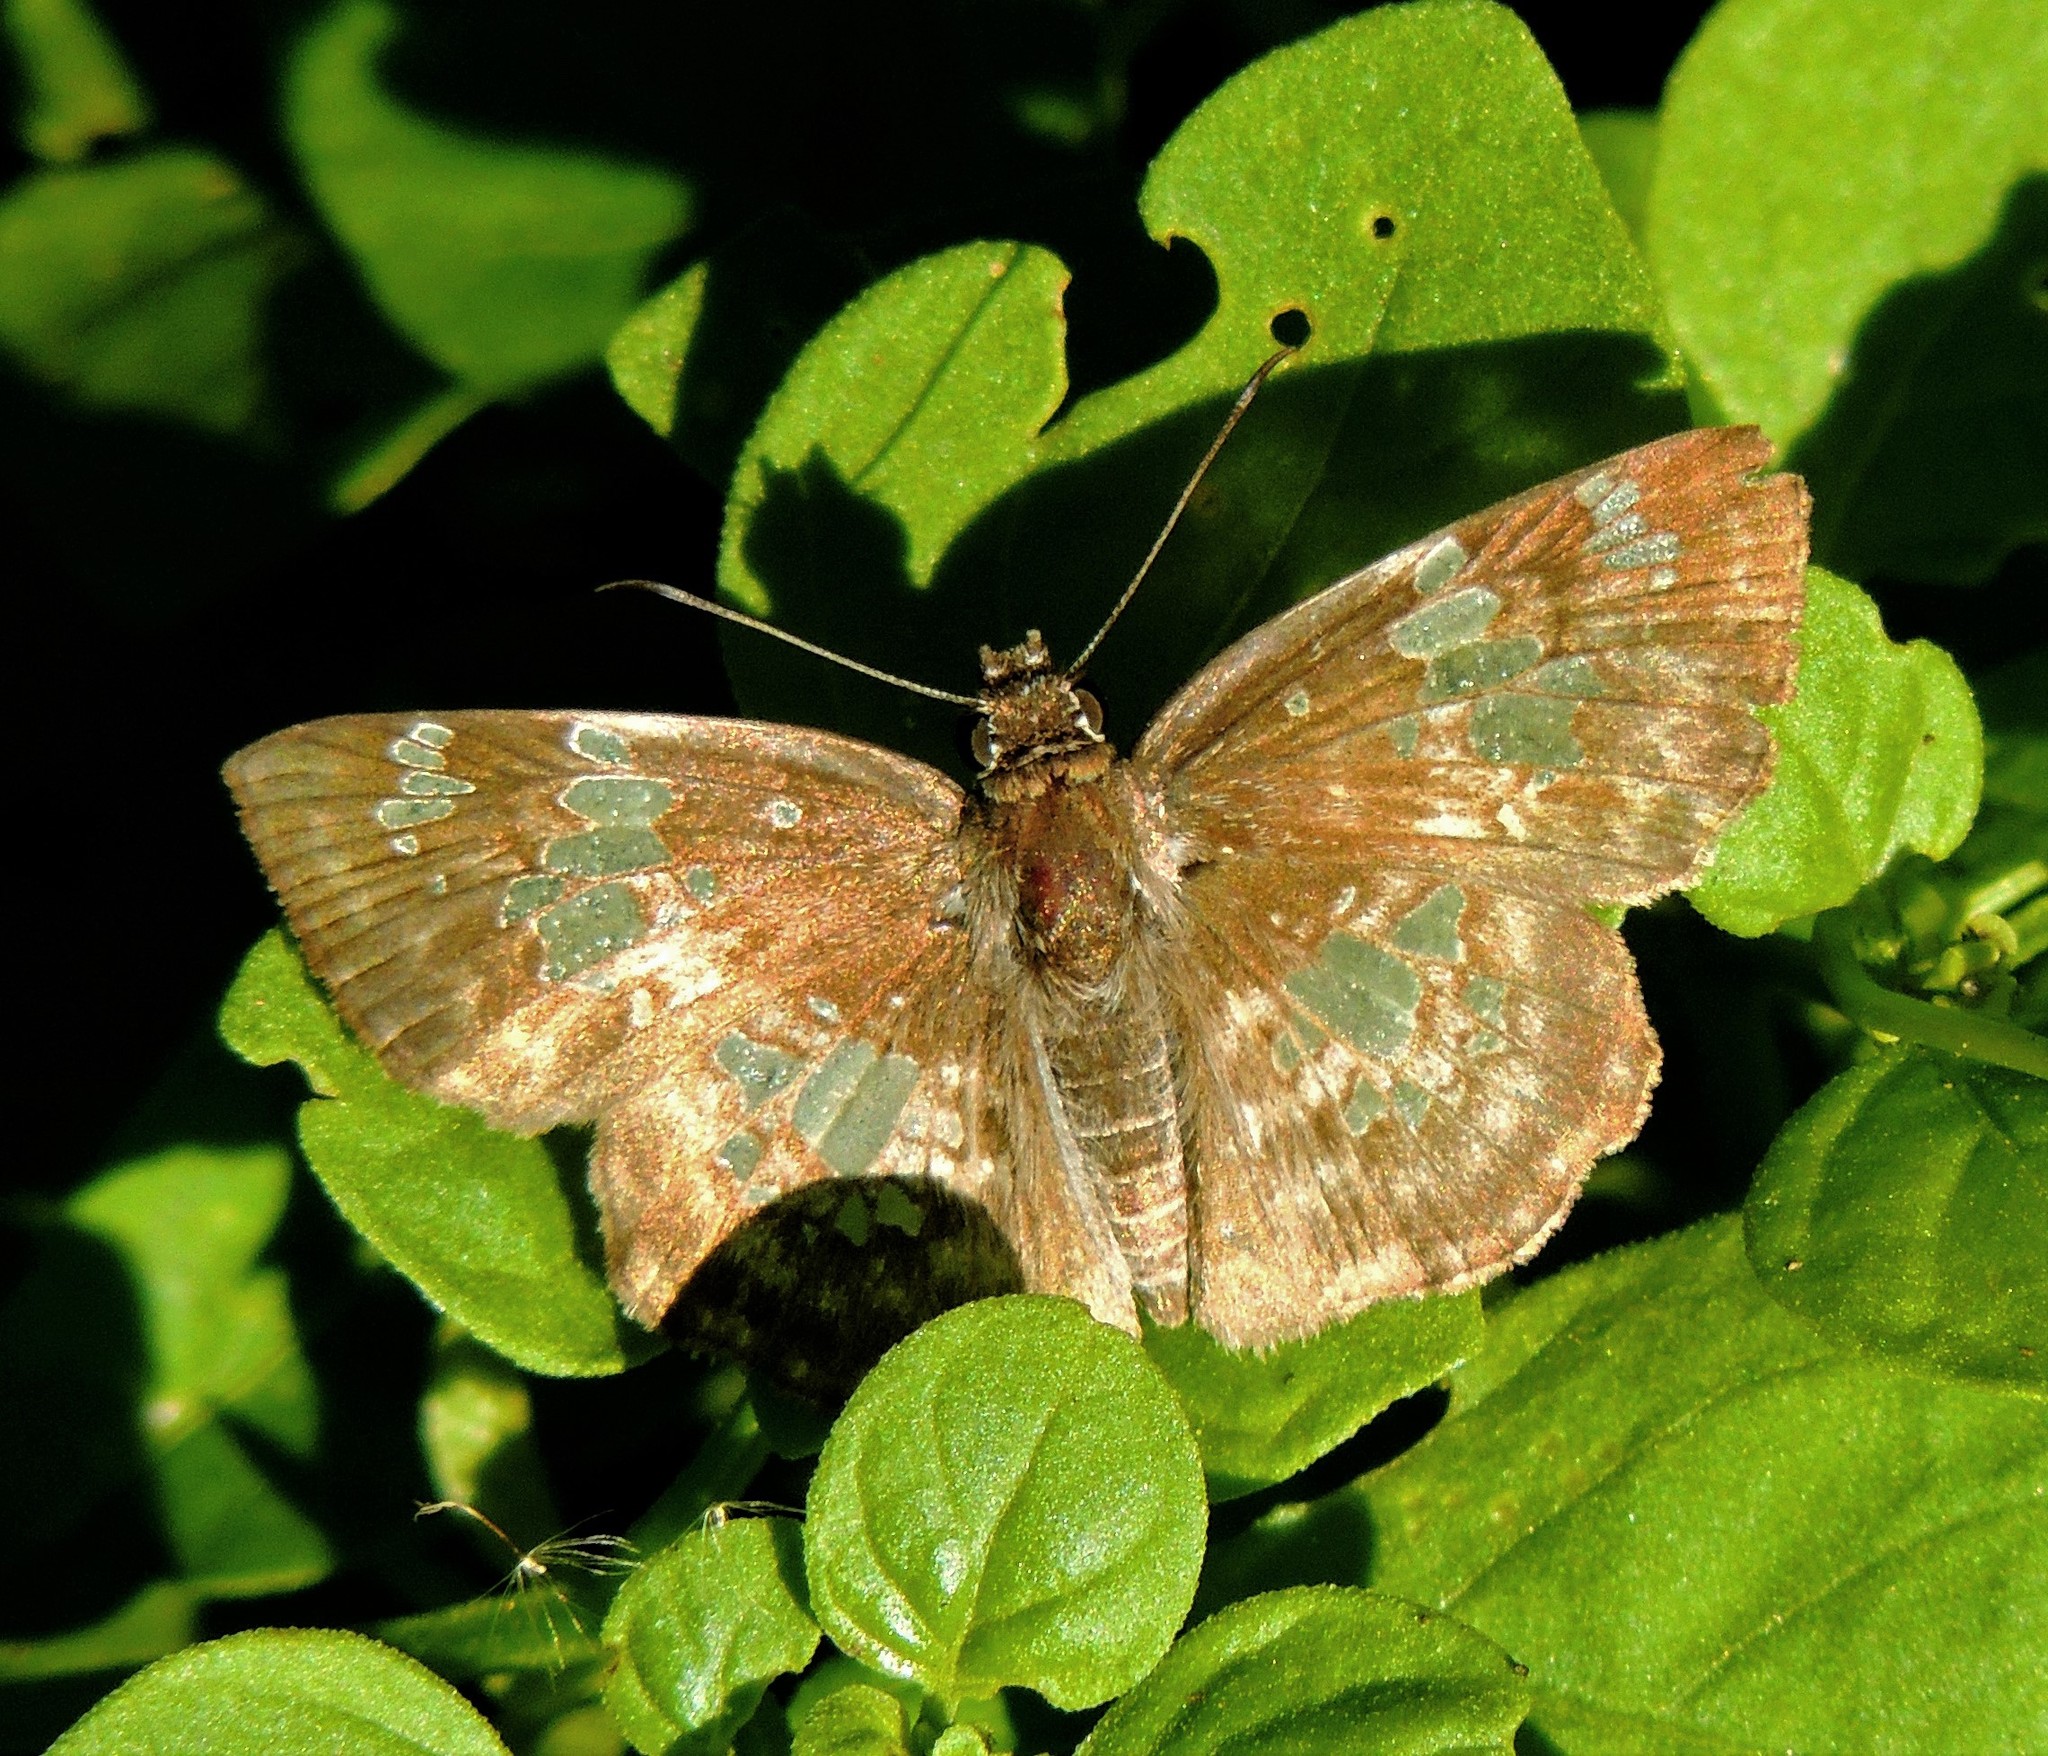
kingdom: Animalia
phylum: Arthropoda
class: Insecta
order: Lepidoptera
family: Hesperiidae
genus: Xenophanes
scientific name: Xenophanes tryxus
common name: Glassy-winged skipper
